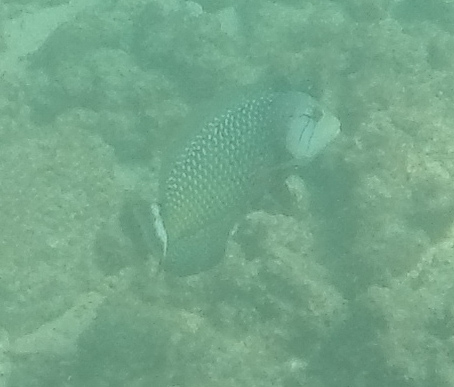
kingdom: Animalia
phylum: Chordata
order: Perciformes
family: Labridae
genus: Novaculichthys
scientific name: Novaculichthys taeniourus
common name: Rockmover wrasse
